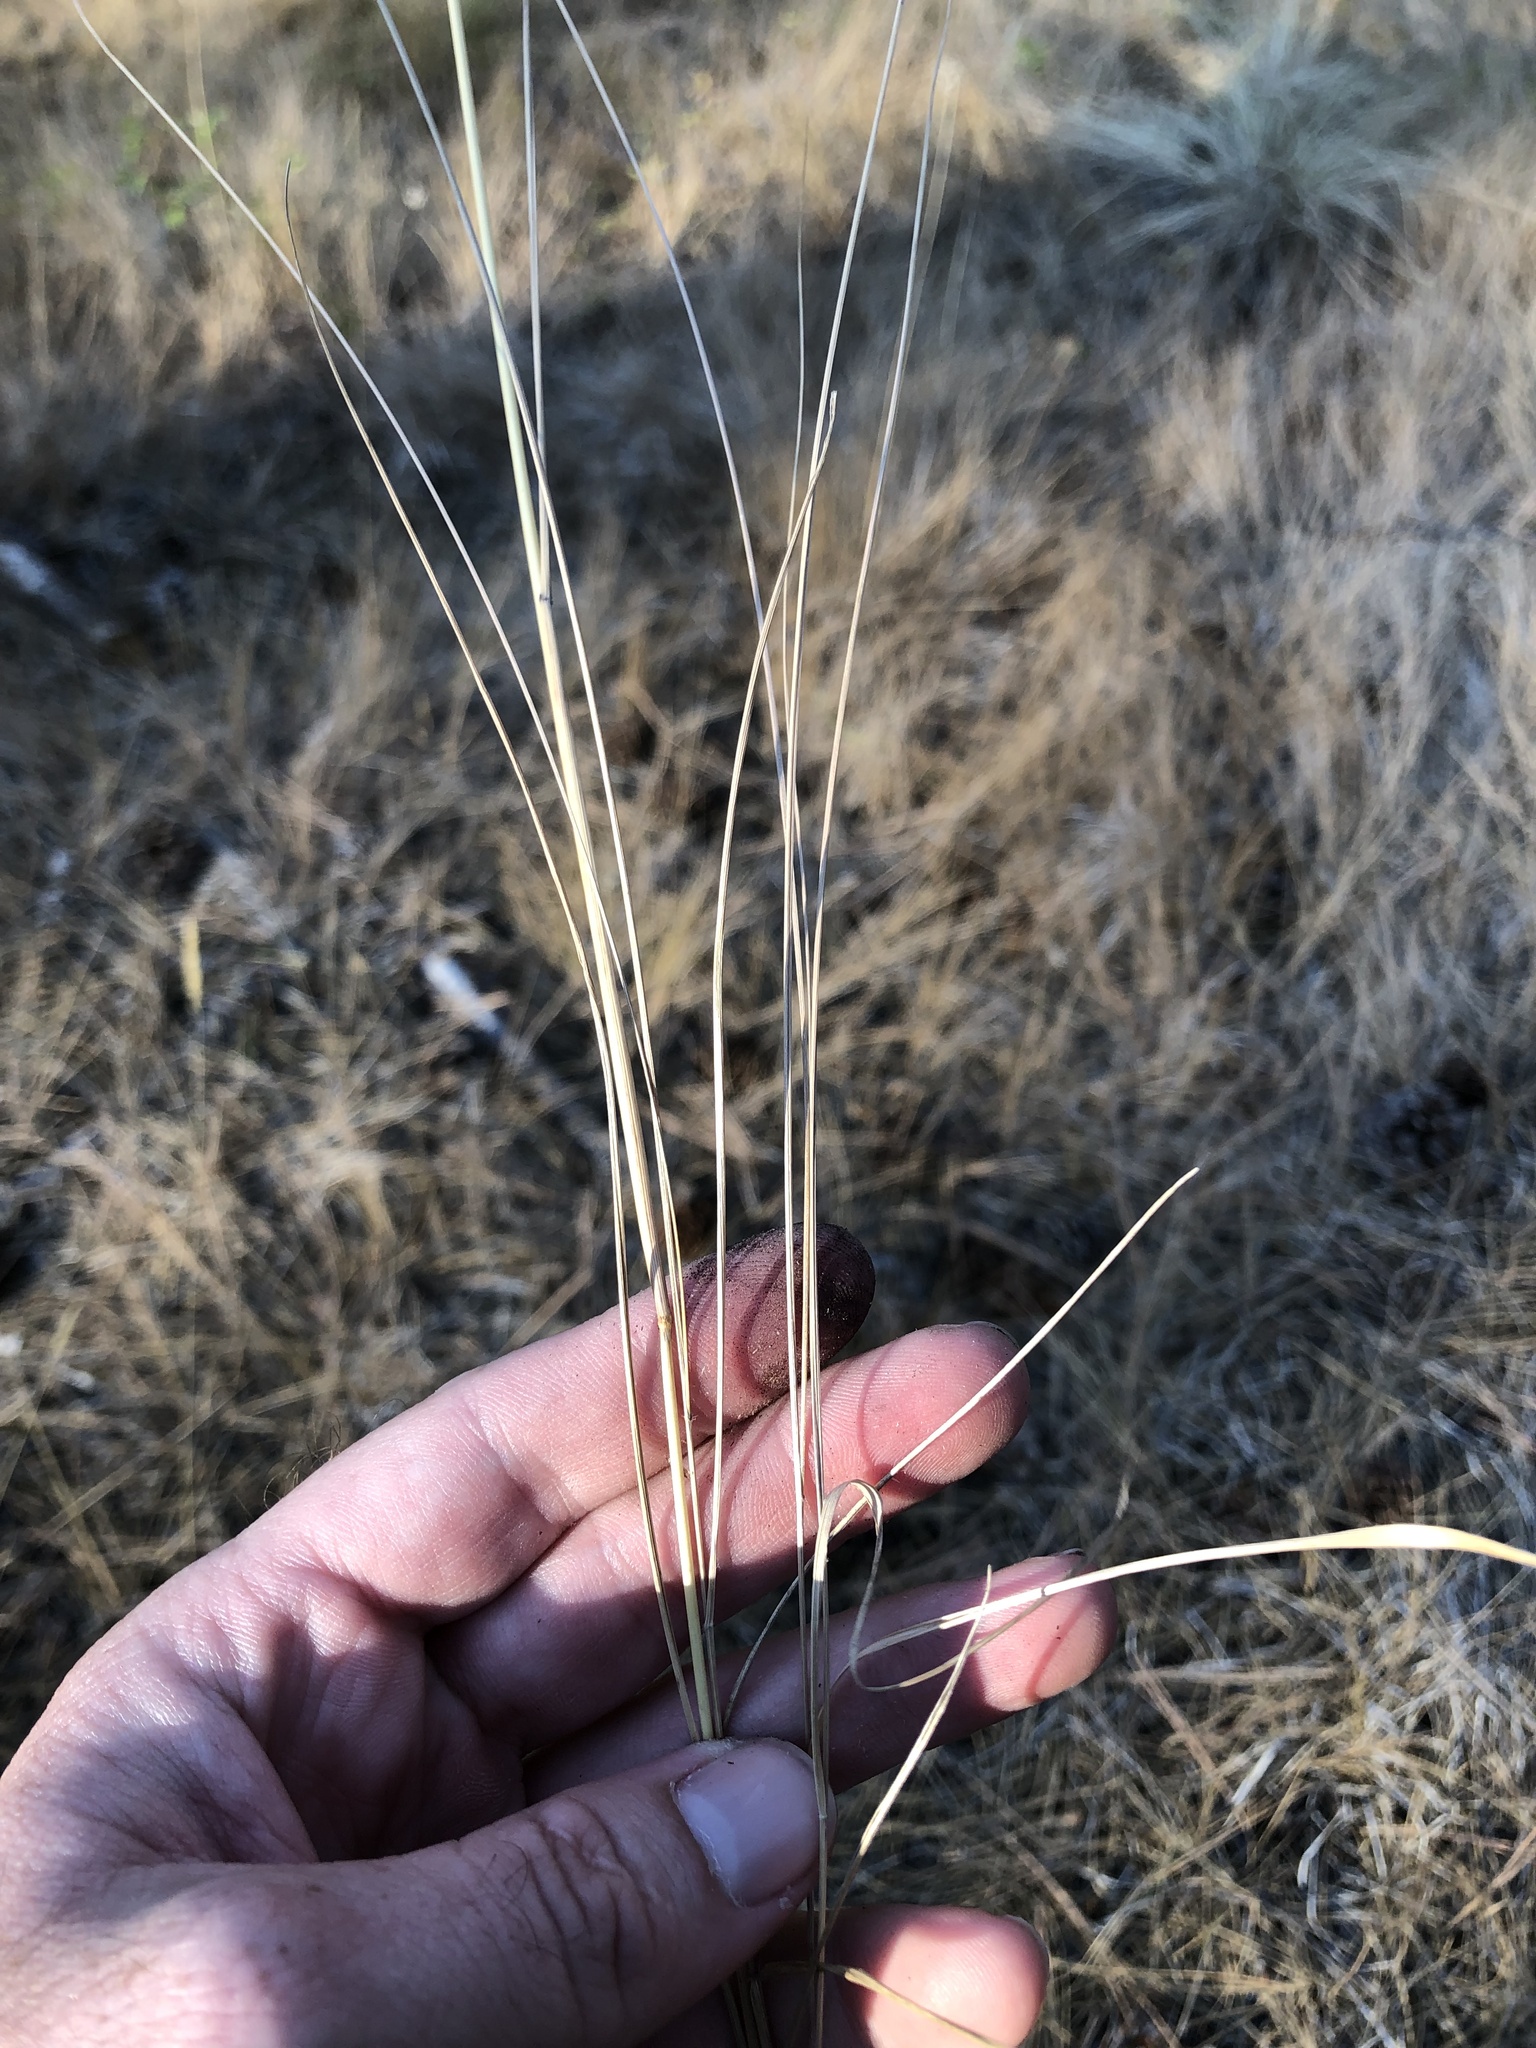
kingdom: Plantae
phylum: Tracheophyta
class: Liliopsida
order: Poales
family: Poaceae
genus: Calamagrostis
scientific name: Calamagrostis rubescens
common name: Pine grass
